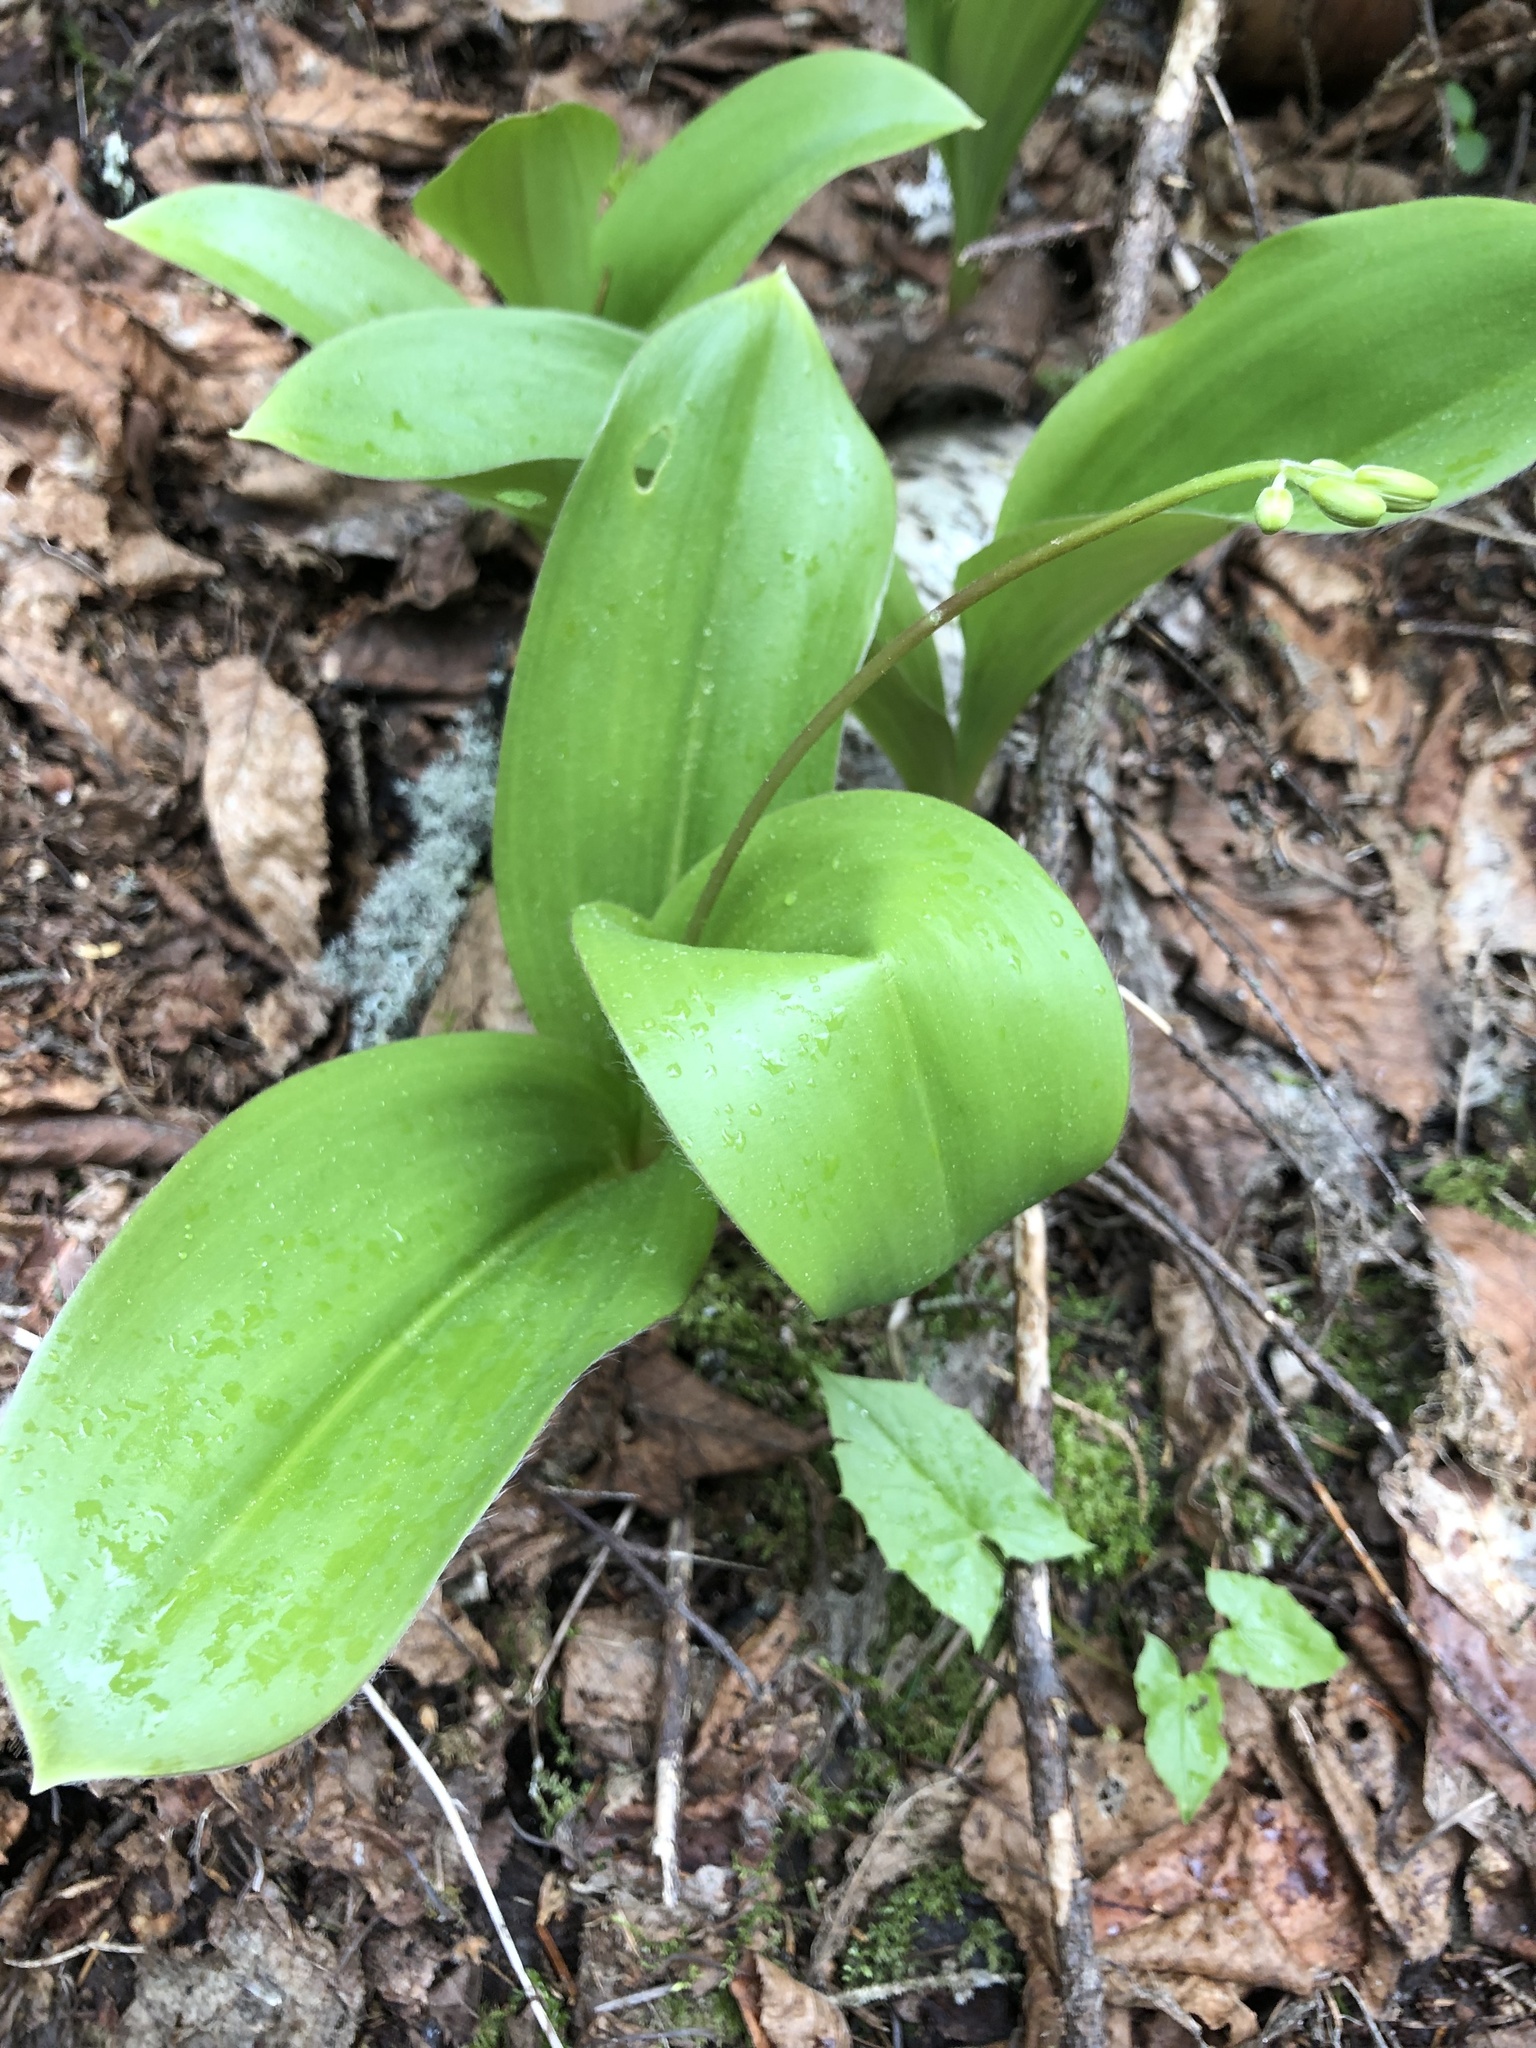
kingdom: Plantae
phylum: Tracheophyta
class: Liliopsida
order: Liliales
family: Liliaceae
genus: Clintonia
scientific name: Clintonia borealis
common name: Yellow clintonia
